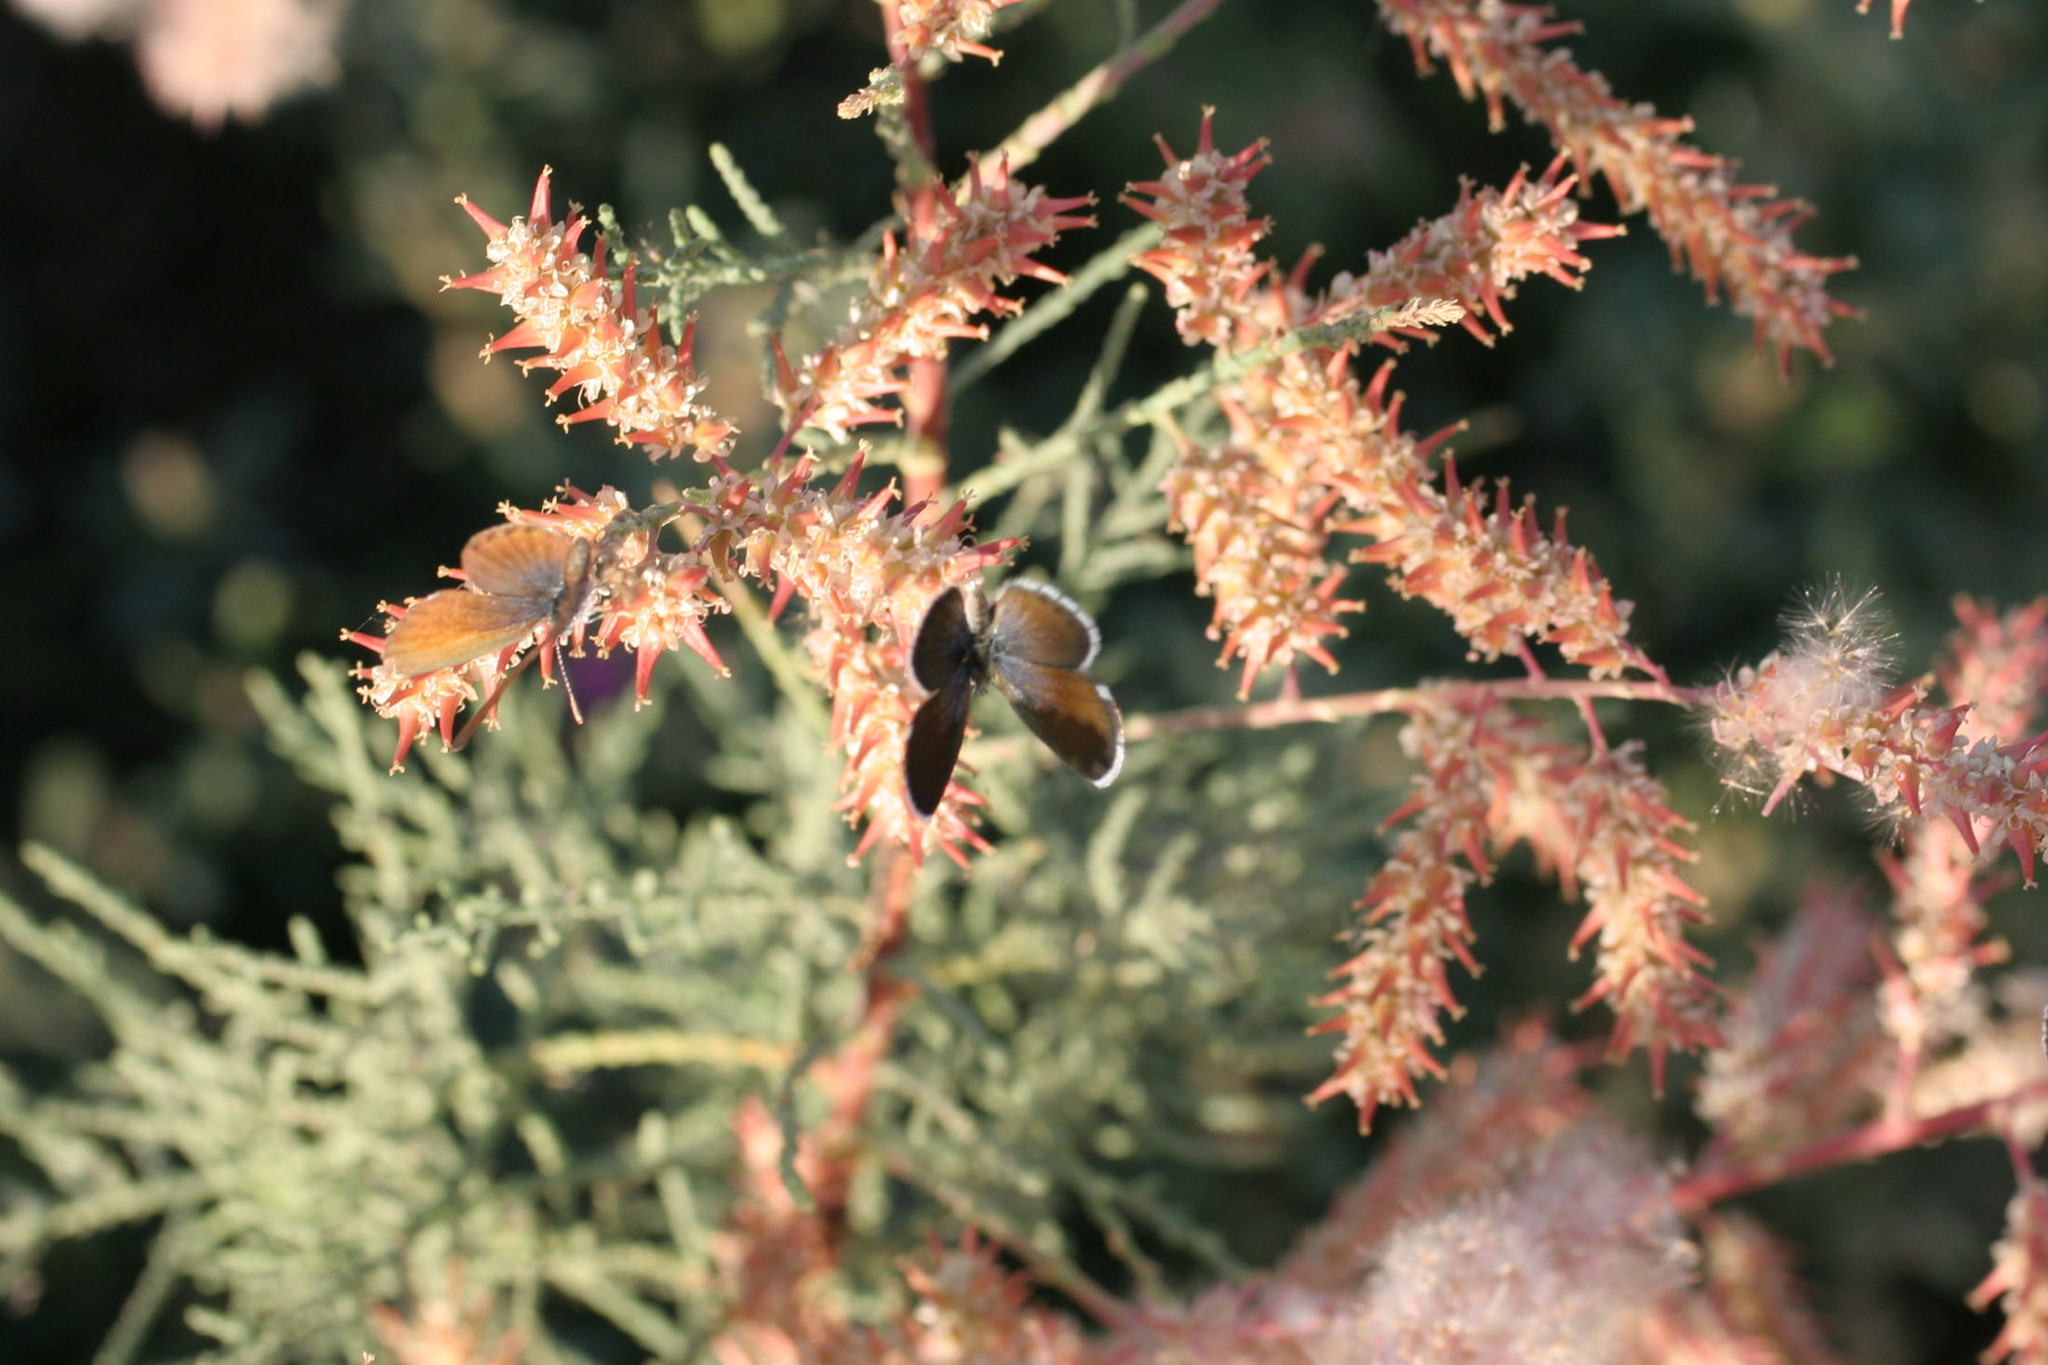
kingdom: Plantae
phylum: Tracheophyta
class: Magnoliopsida
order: Caryophyllales
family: Tamaricaceae
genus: Tamarix
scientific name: Tamarix ramosissima
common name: Pink tamarisk
